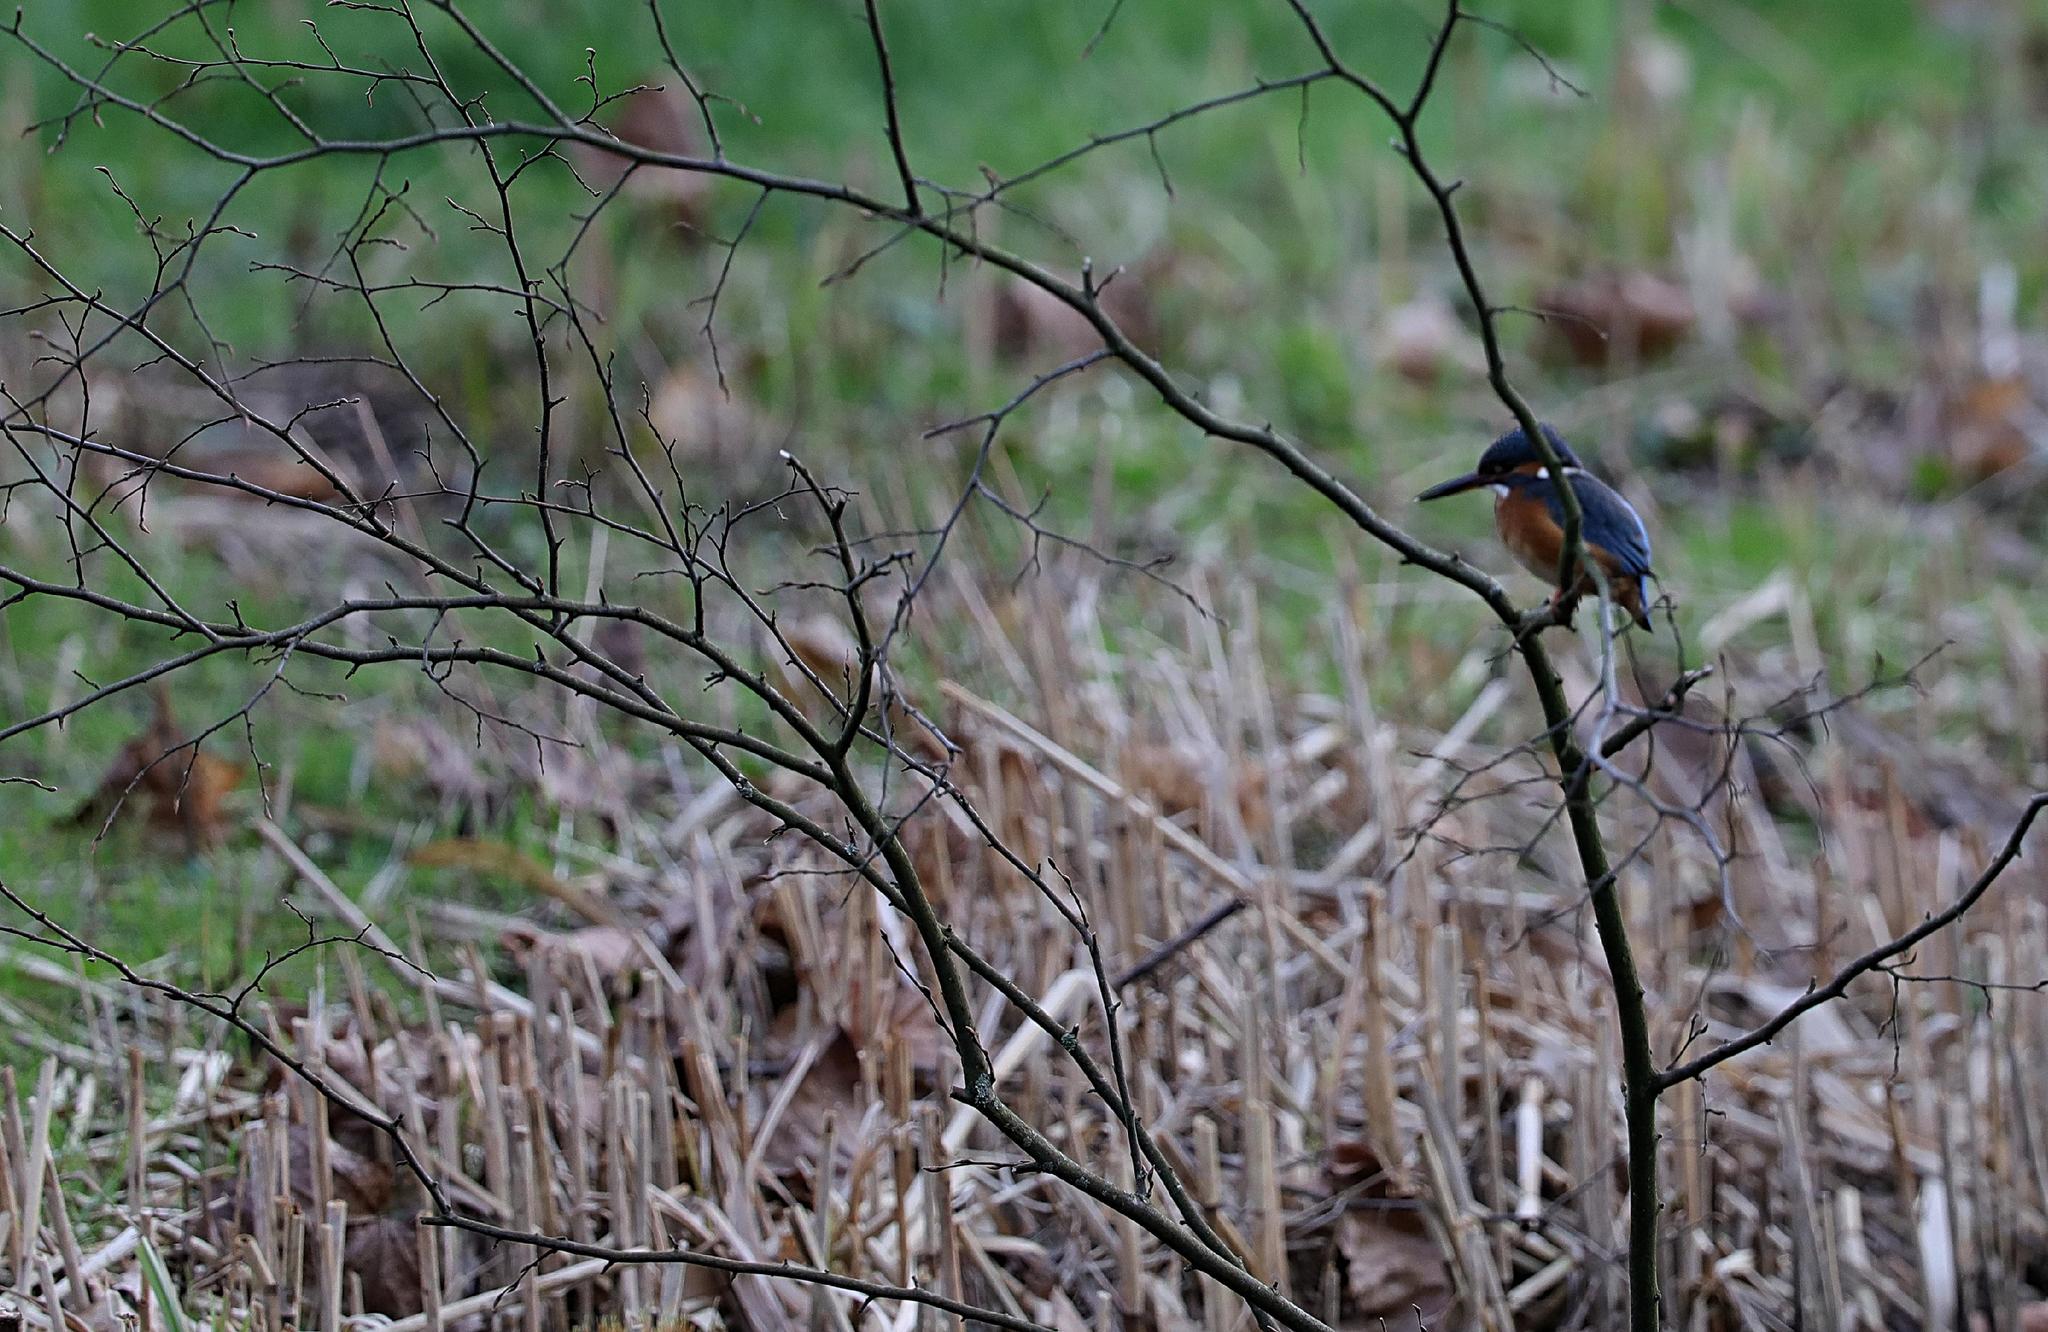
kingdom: Animalia
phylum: Chordata
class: Aves
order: Coraciiformes
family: Alcedinidae
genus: Alcedo
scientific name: Alcedo atthis
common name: Common kingfisher
